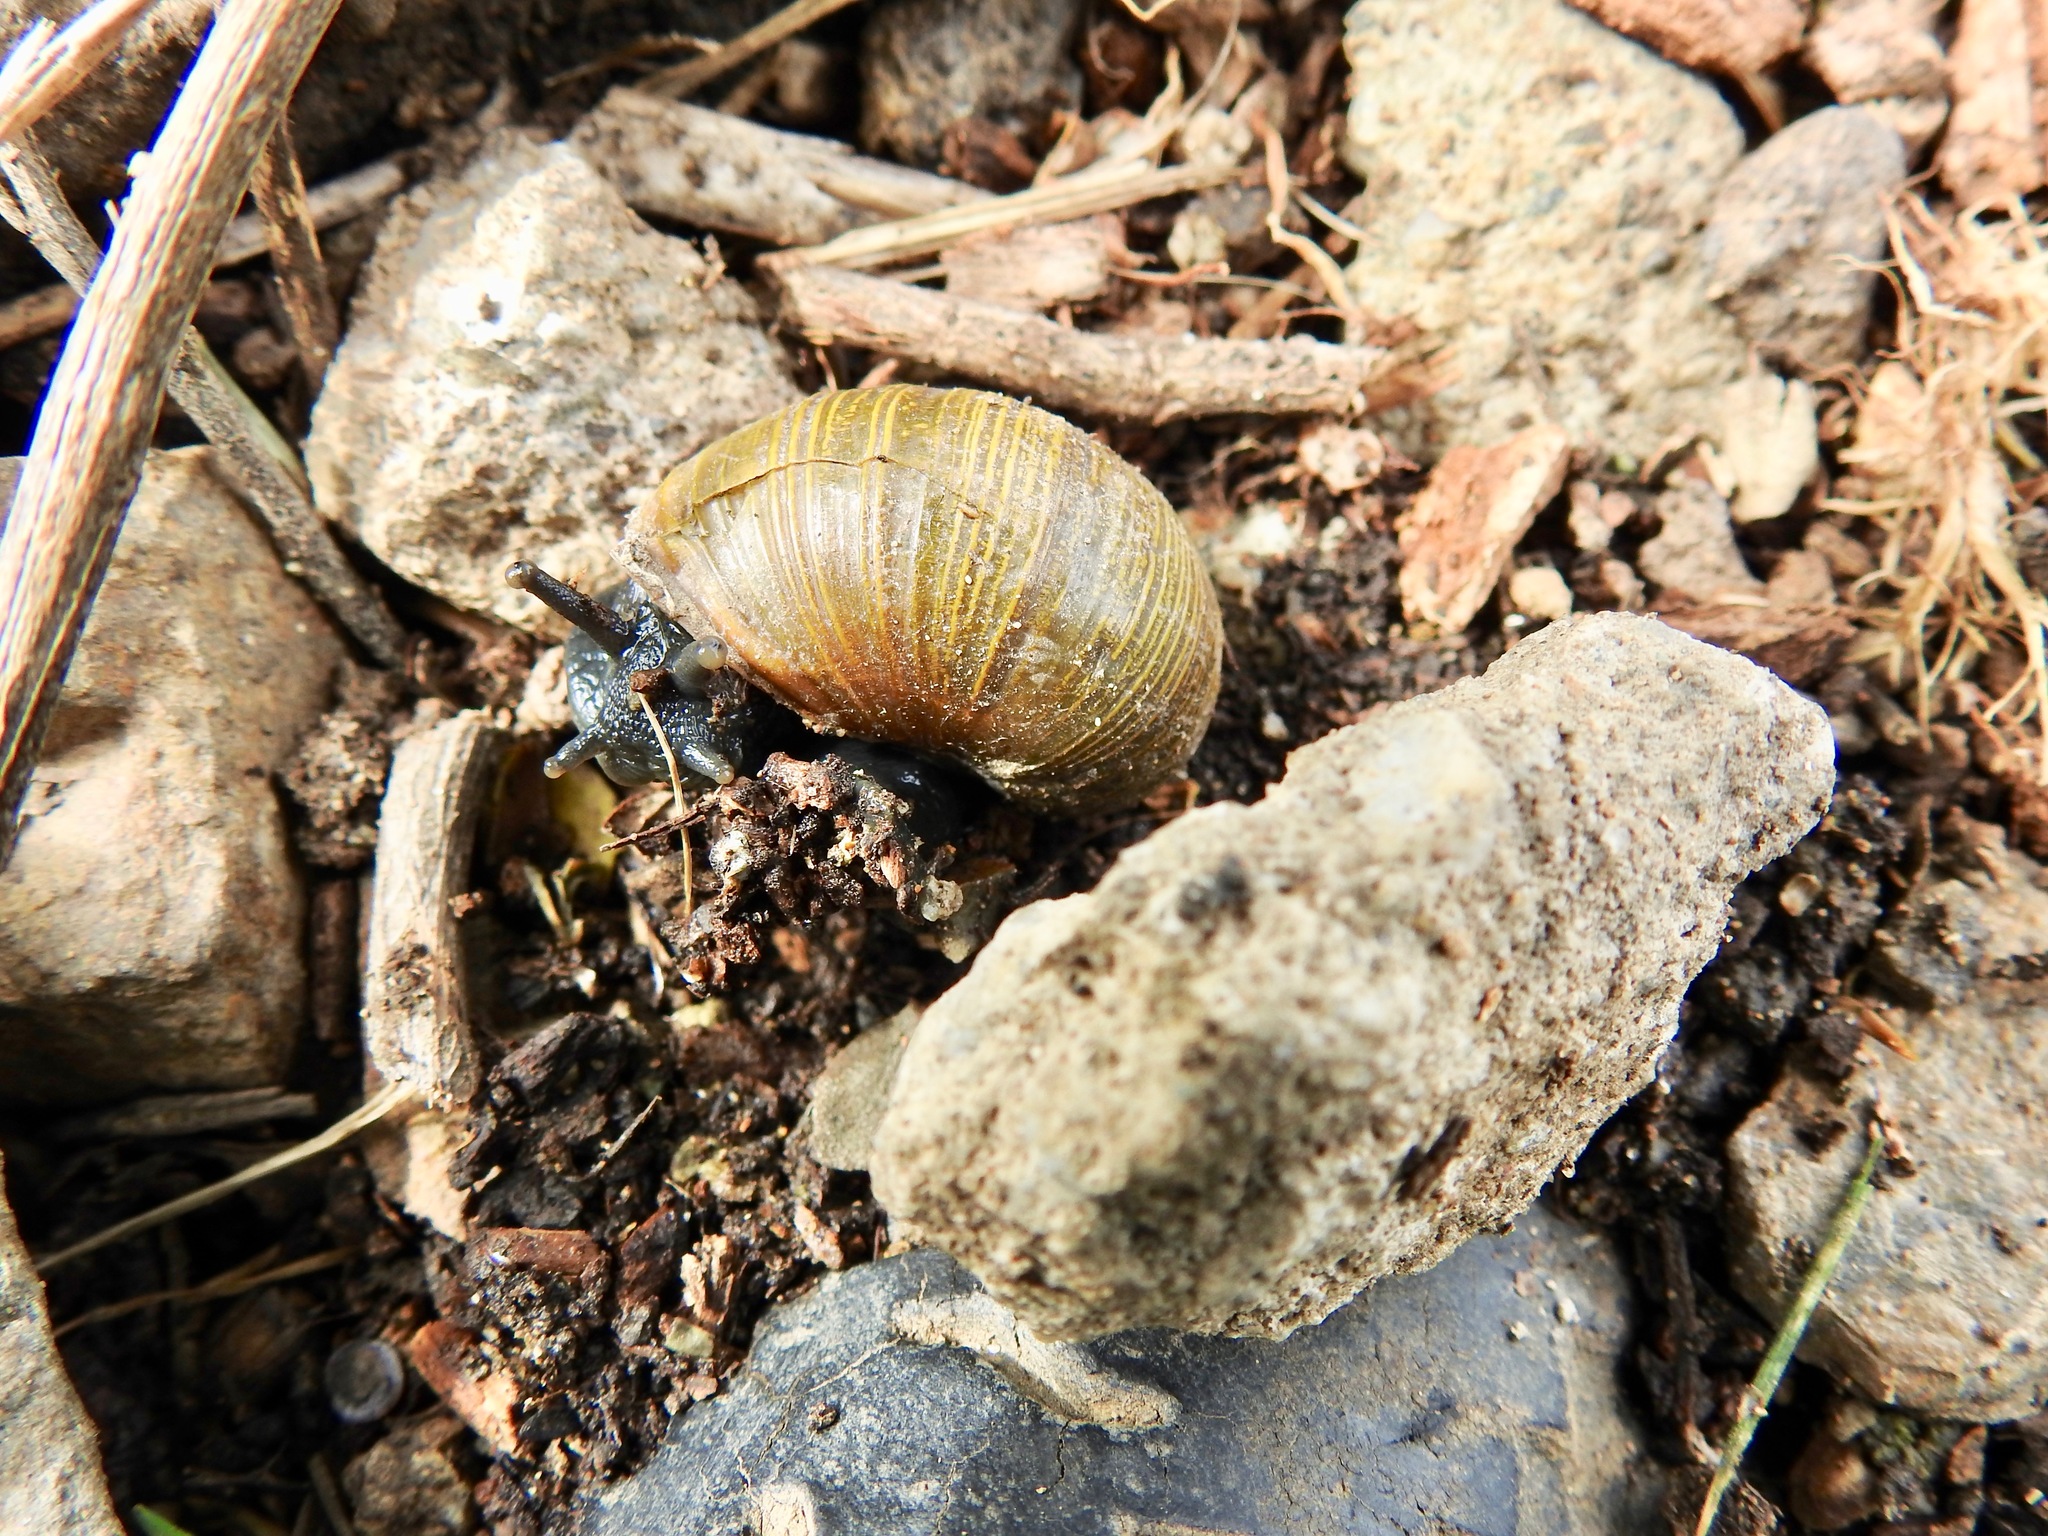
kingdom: Animalia
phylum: Mollusca
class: Gastropoda
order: Stylommatophora
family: Helicidae
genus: Cantareus
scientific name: Cantareus apertus
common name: Green gardensnail
